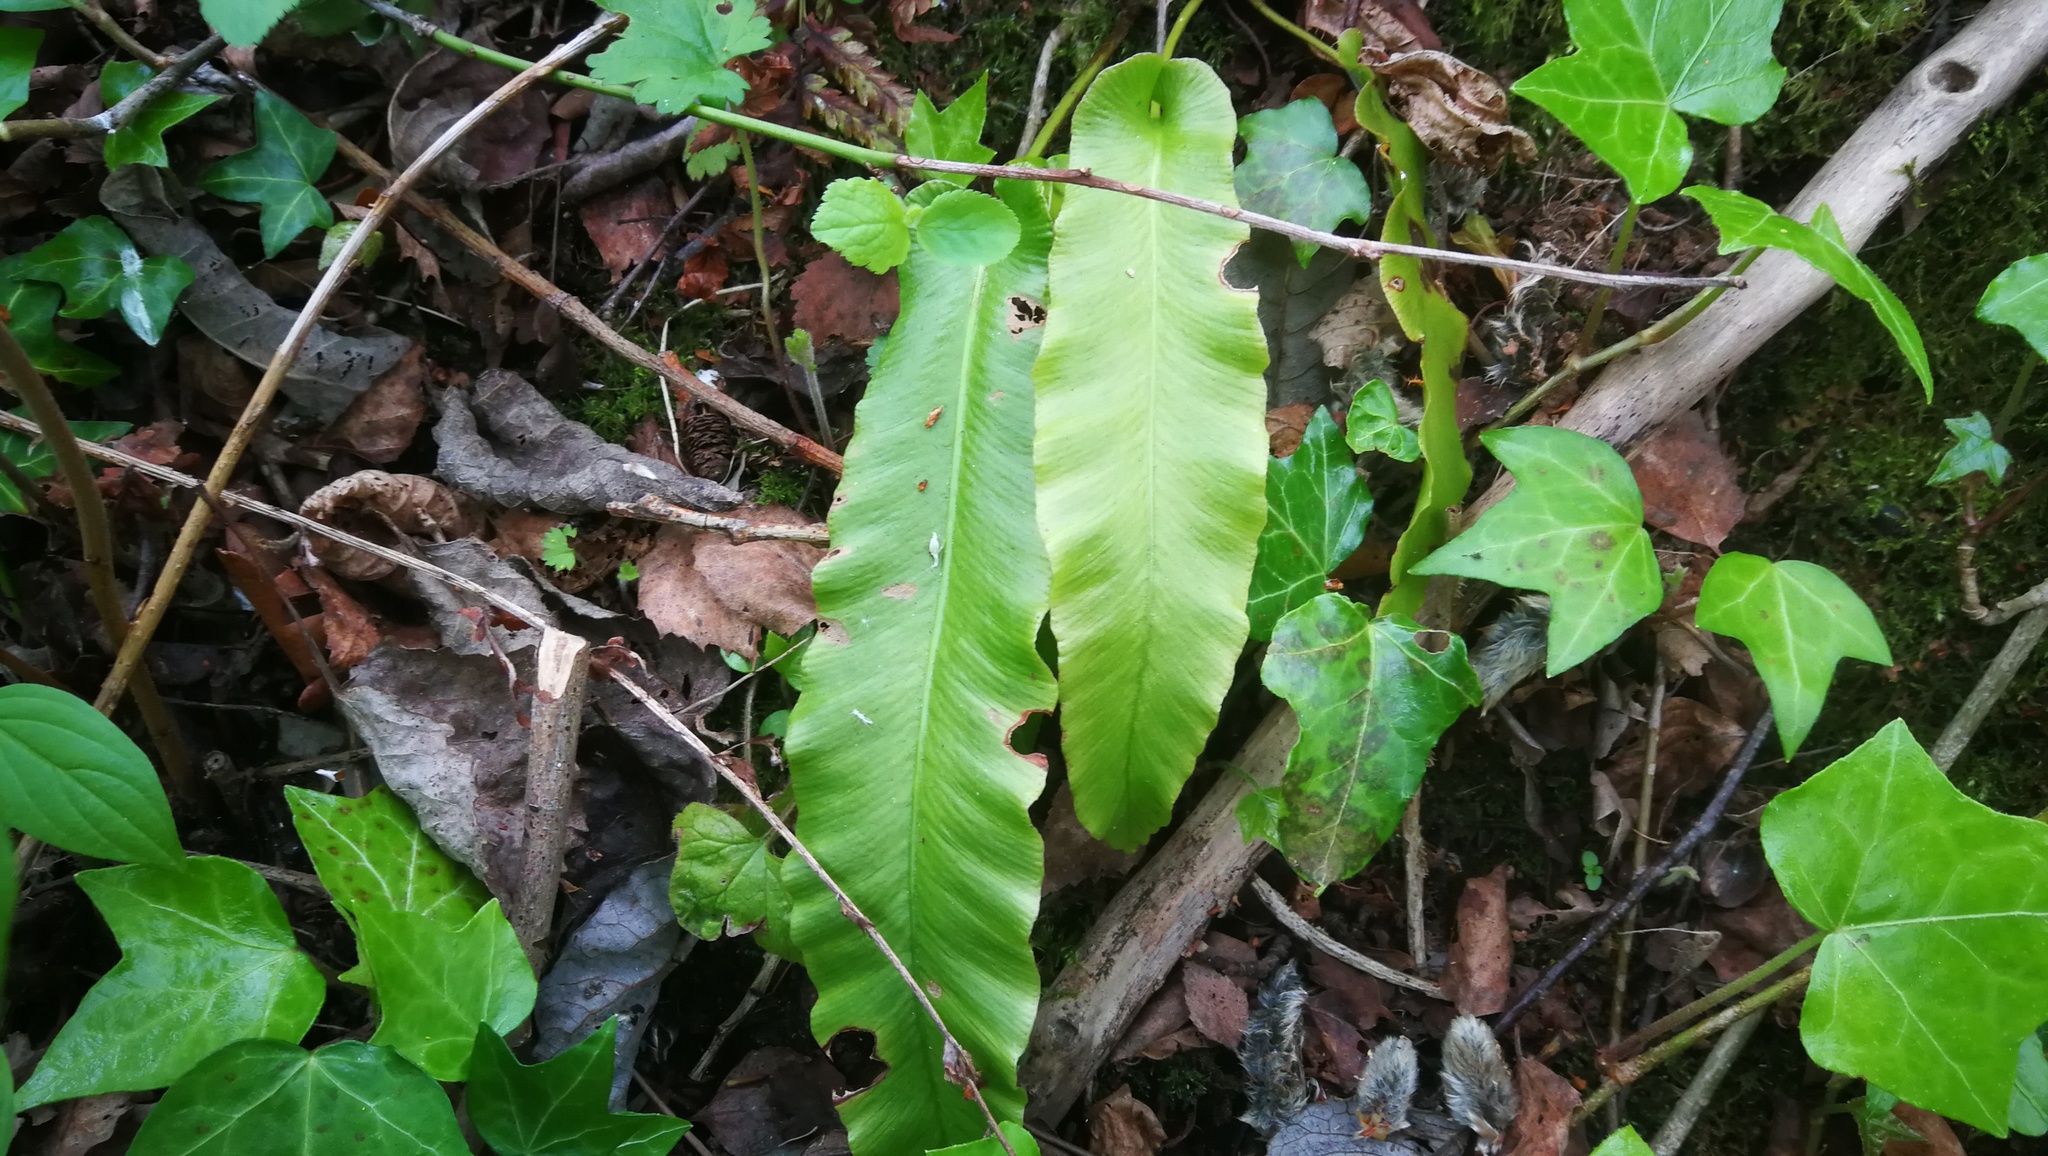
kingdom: Plantae
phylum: Tracheophyta
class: Polypodiopsida
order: Polypodiales
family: Aspleniaceae
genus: Asplenium
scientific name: Asplenium scolopendrium
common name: Hart's-tongue fern
